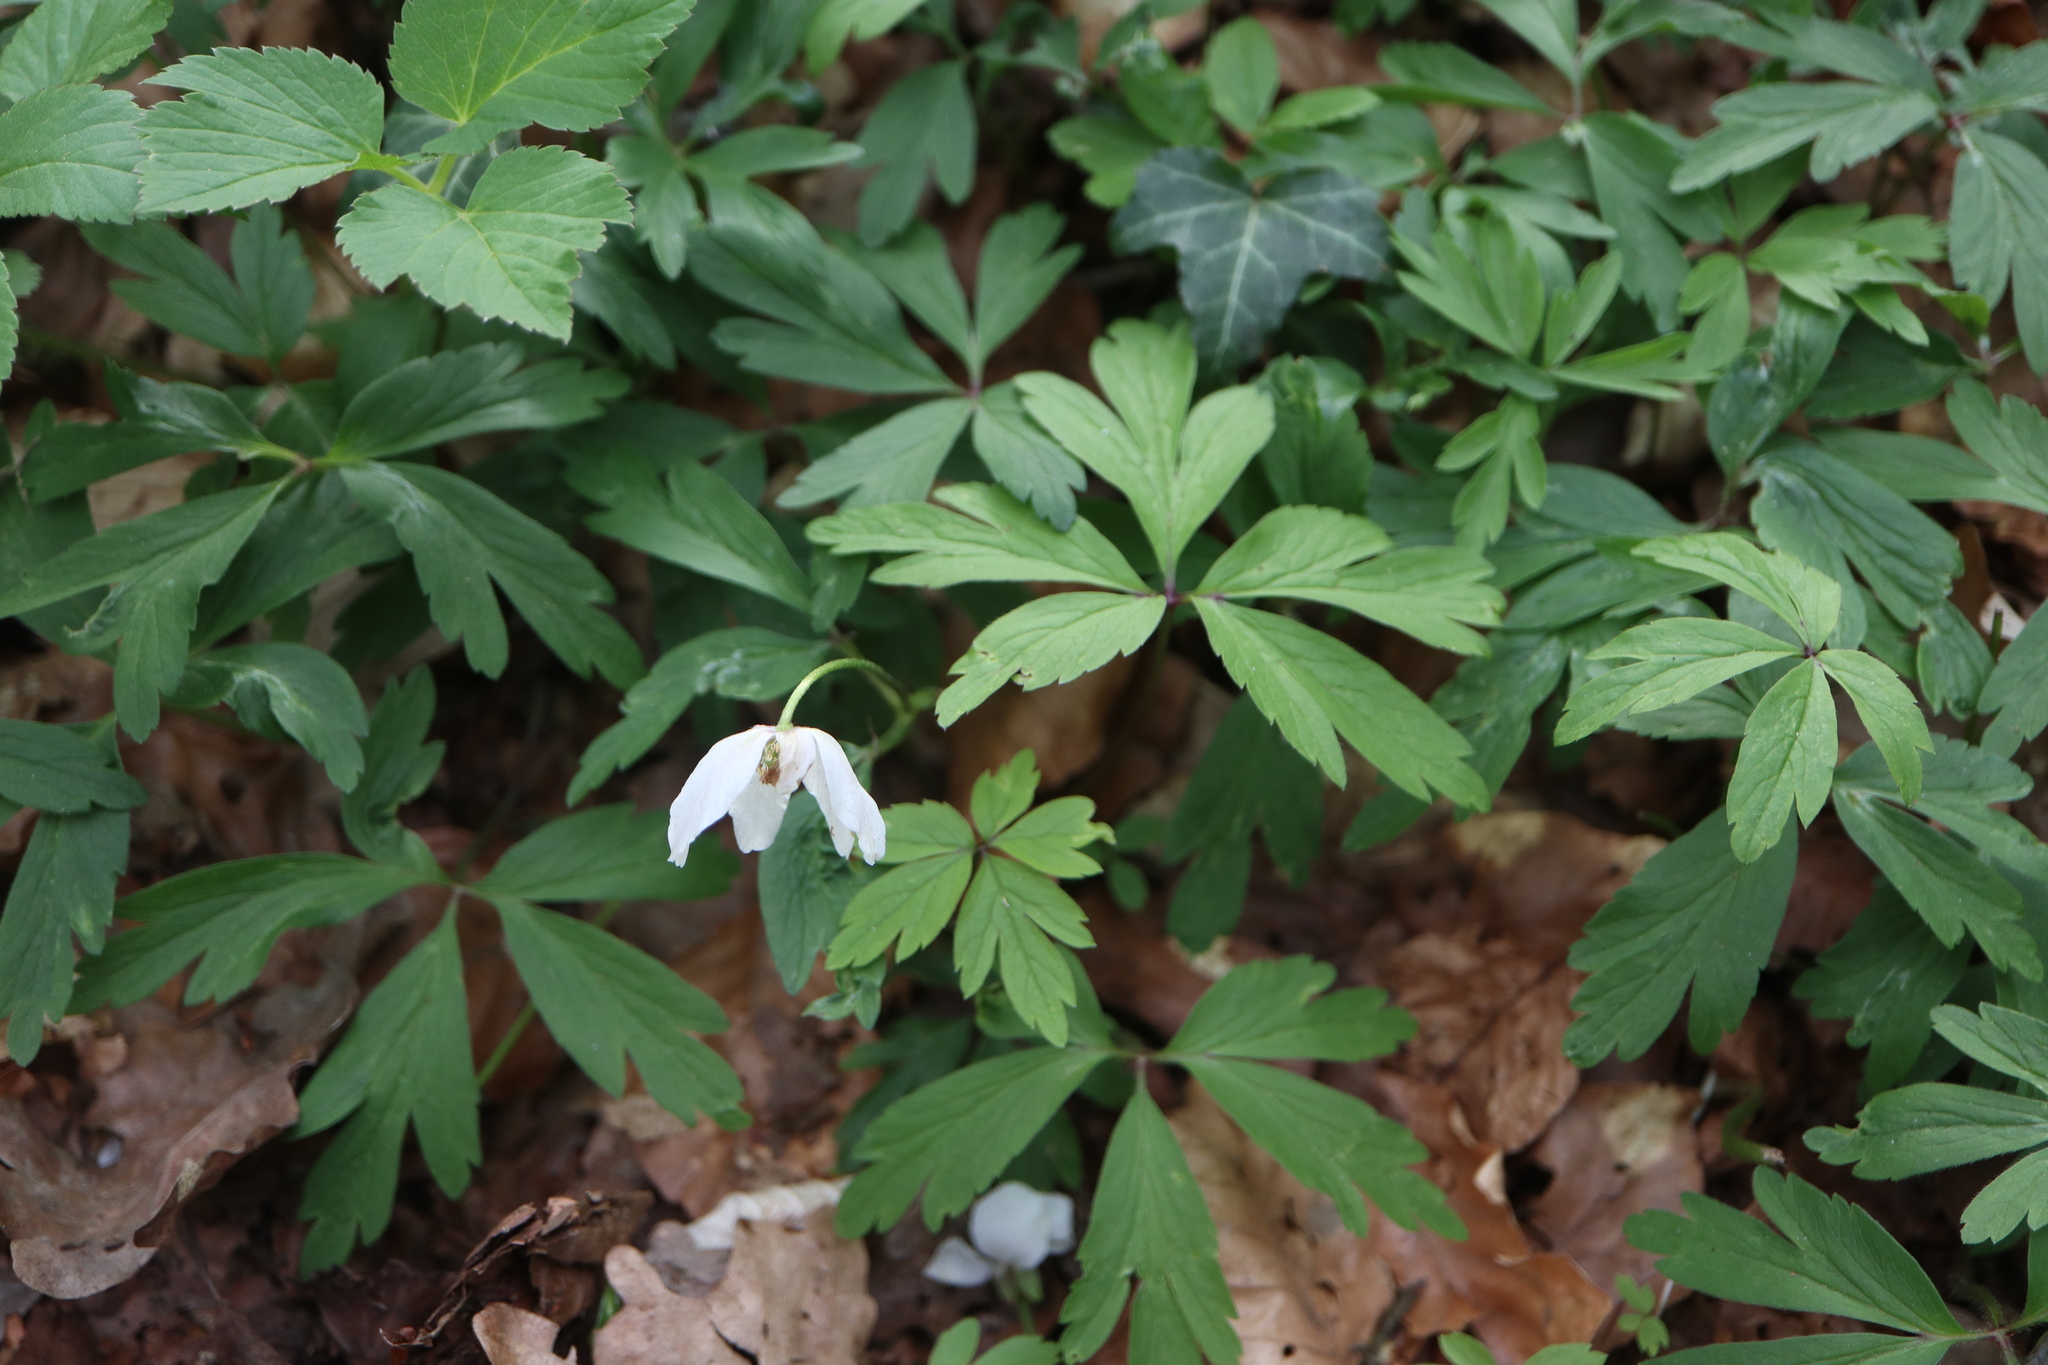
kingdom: Plantae
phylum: Tracheophyta
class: Magnoliopsida
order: Ranunculales
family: Ranunculaceae
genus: Anemone
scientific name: Anemone nemorosa
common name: Wood anemone
